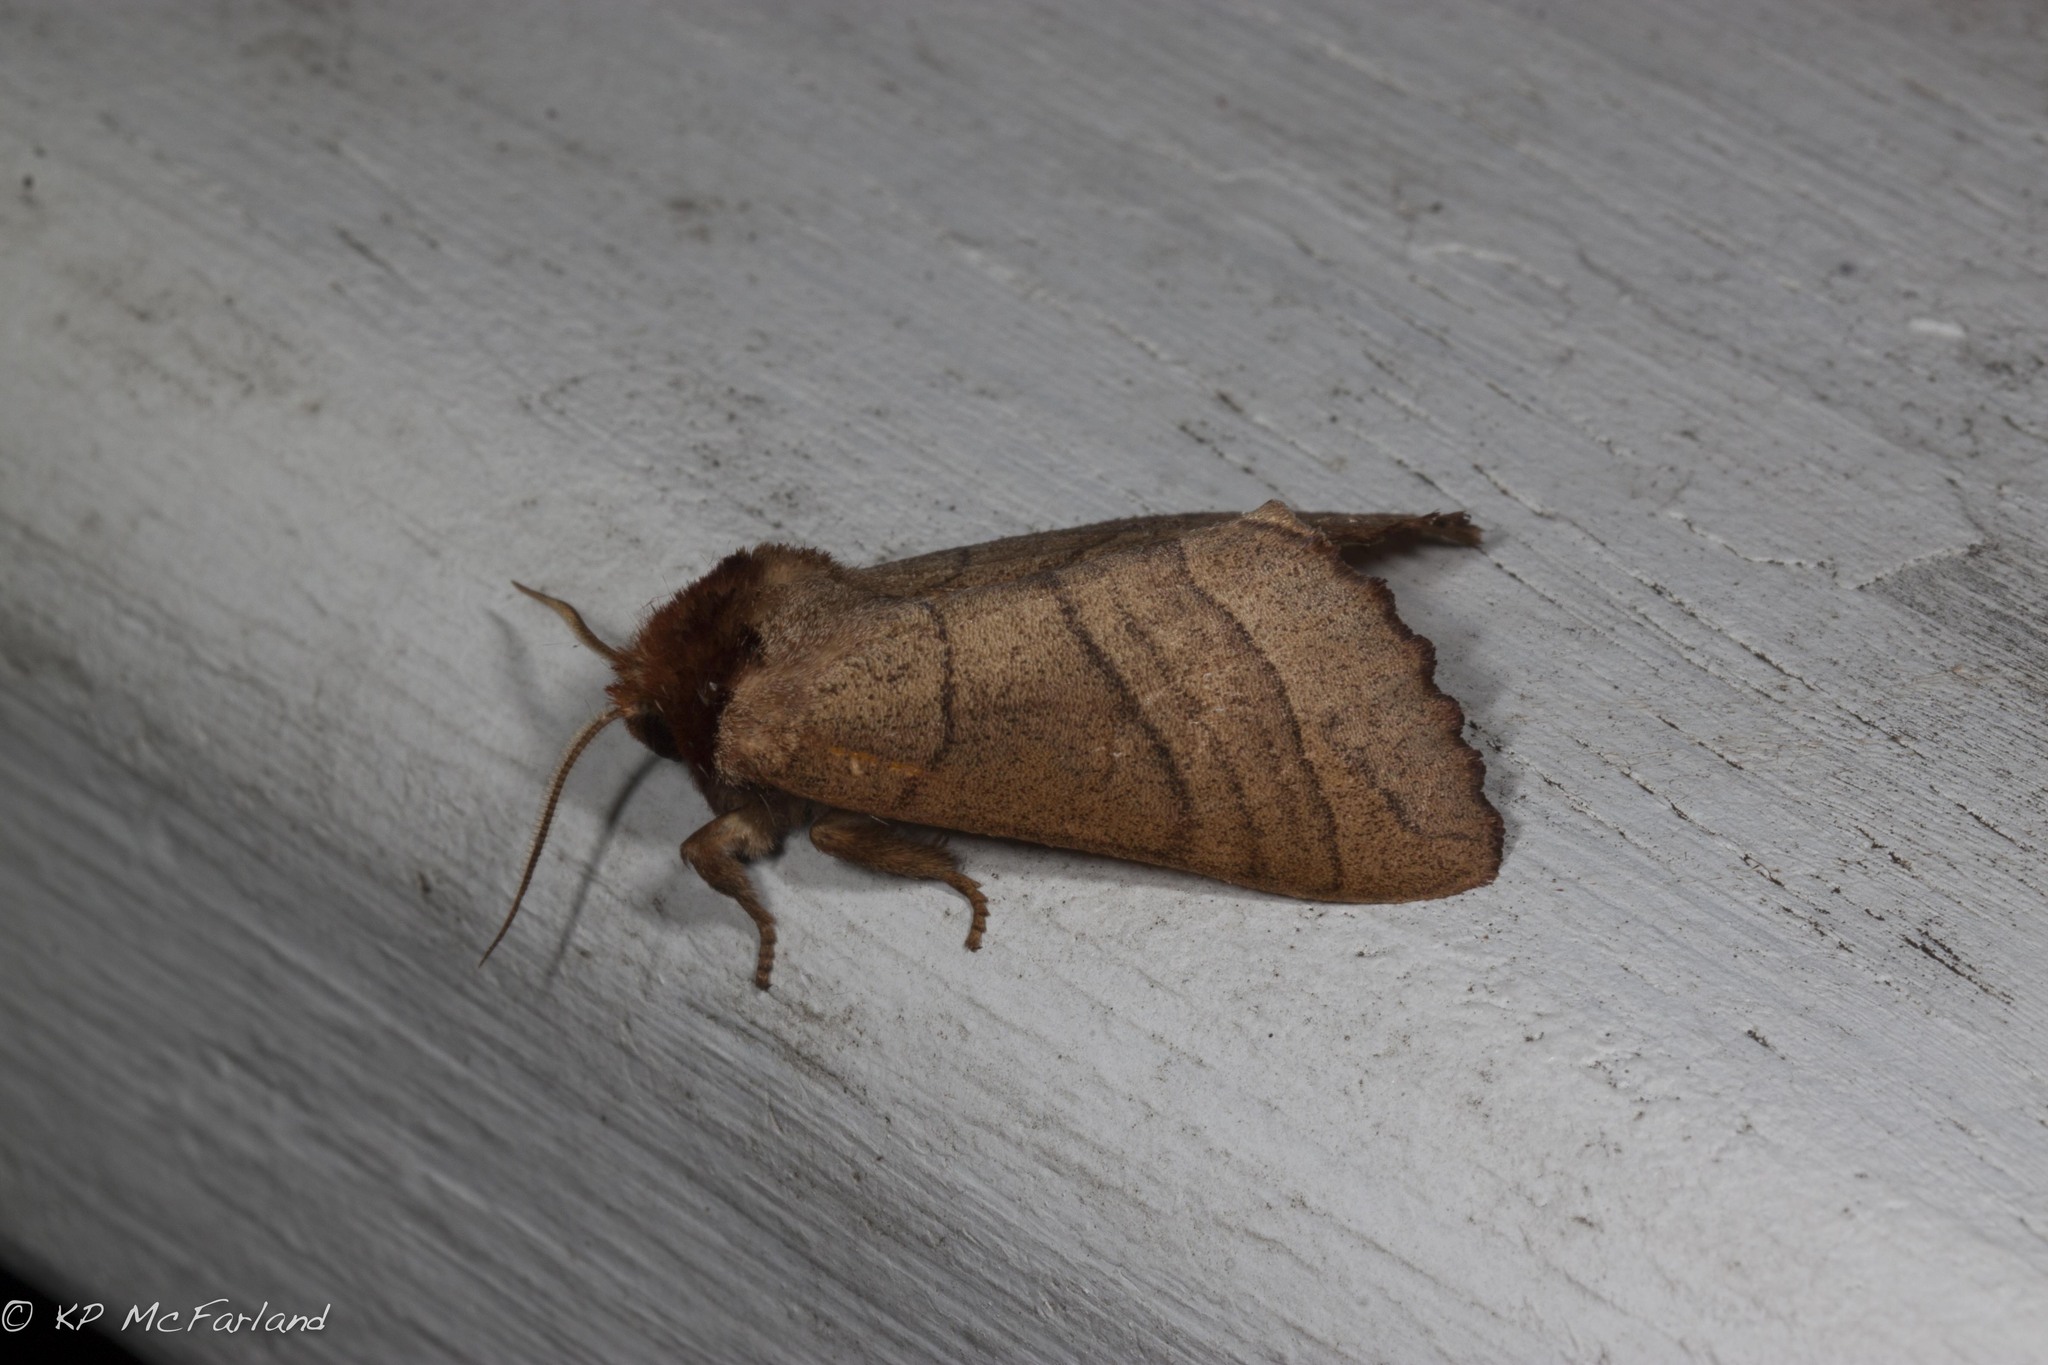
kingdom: Animalia
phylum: Arthropoda
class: Insecta
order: Lepidoptera
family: Notodontidae
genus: Datana
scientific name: Datana ministra
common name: Yellow-necked caterpillar moth
